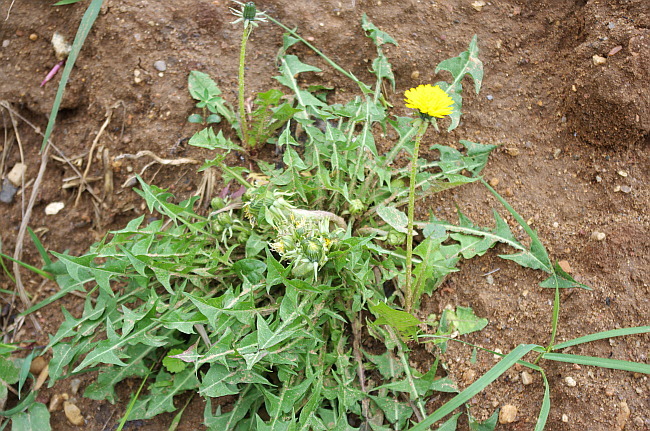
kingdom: Plantae
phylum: Tracheophyta
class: Magnoliopsida
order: Asterales
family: Asteraceae
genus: Taraxacum
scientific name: Taraxacum officinale
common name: Common dandelion
